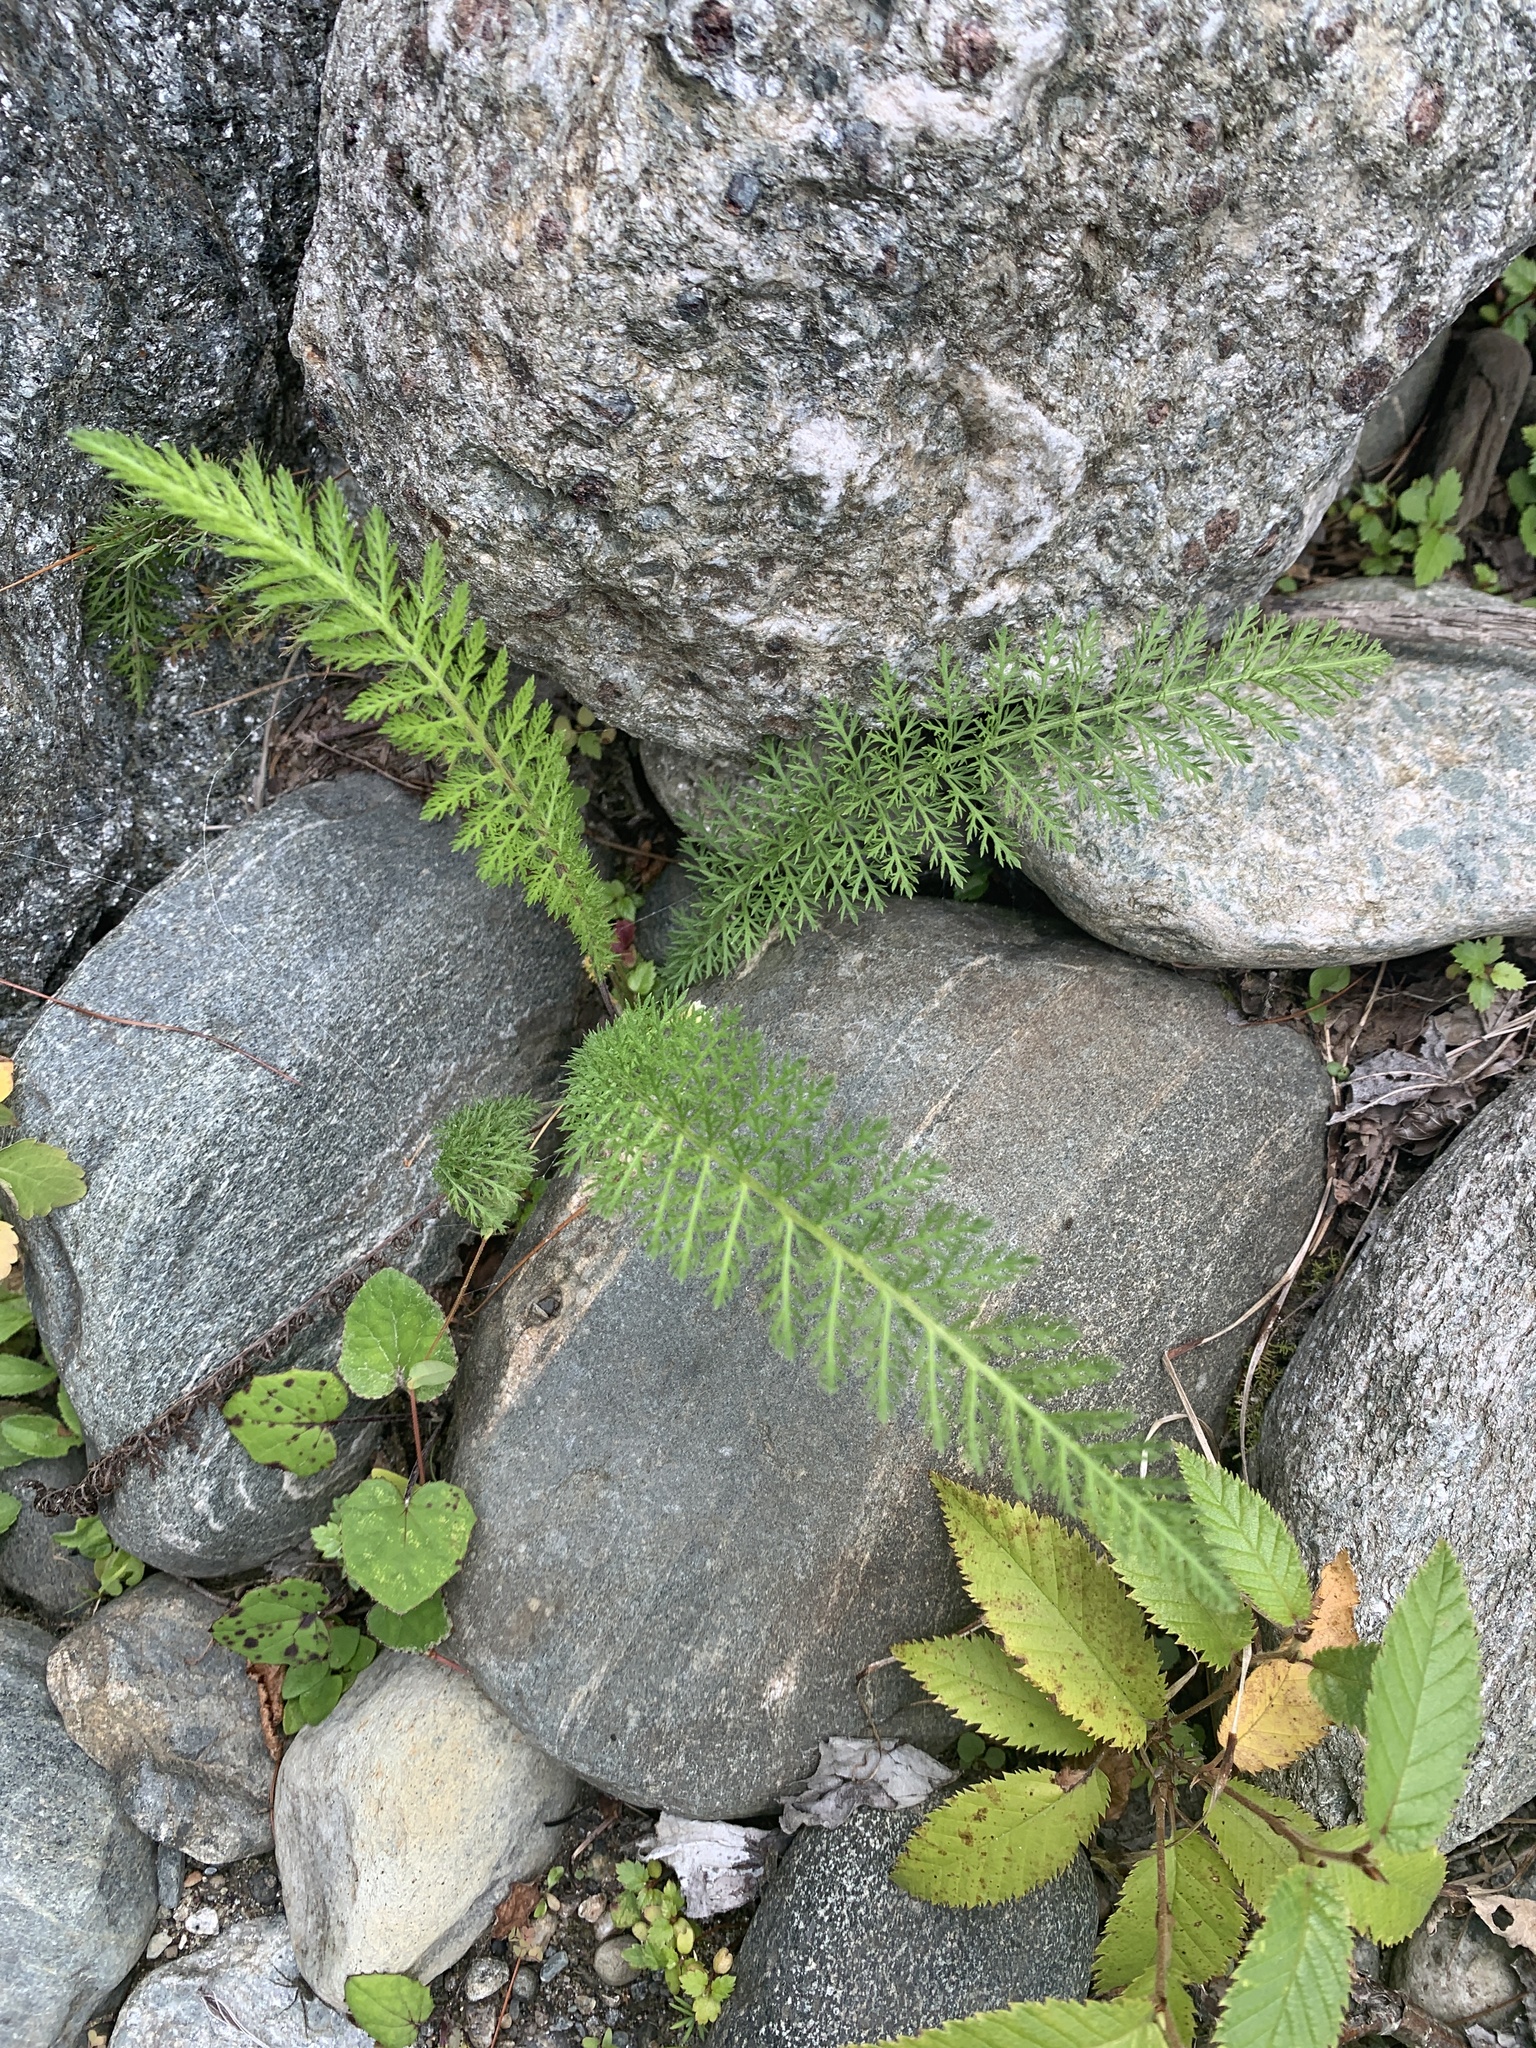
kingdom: Plantae
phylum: Tracheophyta
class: Magnoliopsida
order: Asterales
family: Asteraceae
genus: Achillea
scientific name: Achillea millefolium
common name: Yarrow
